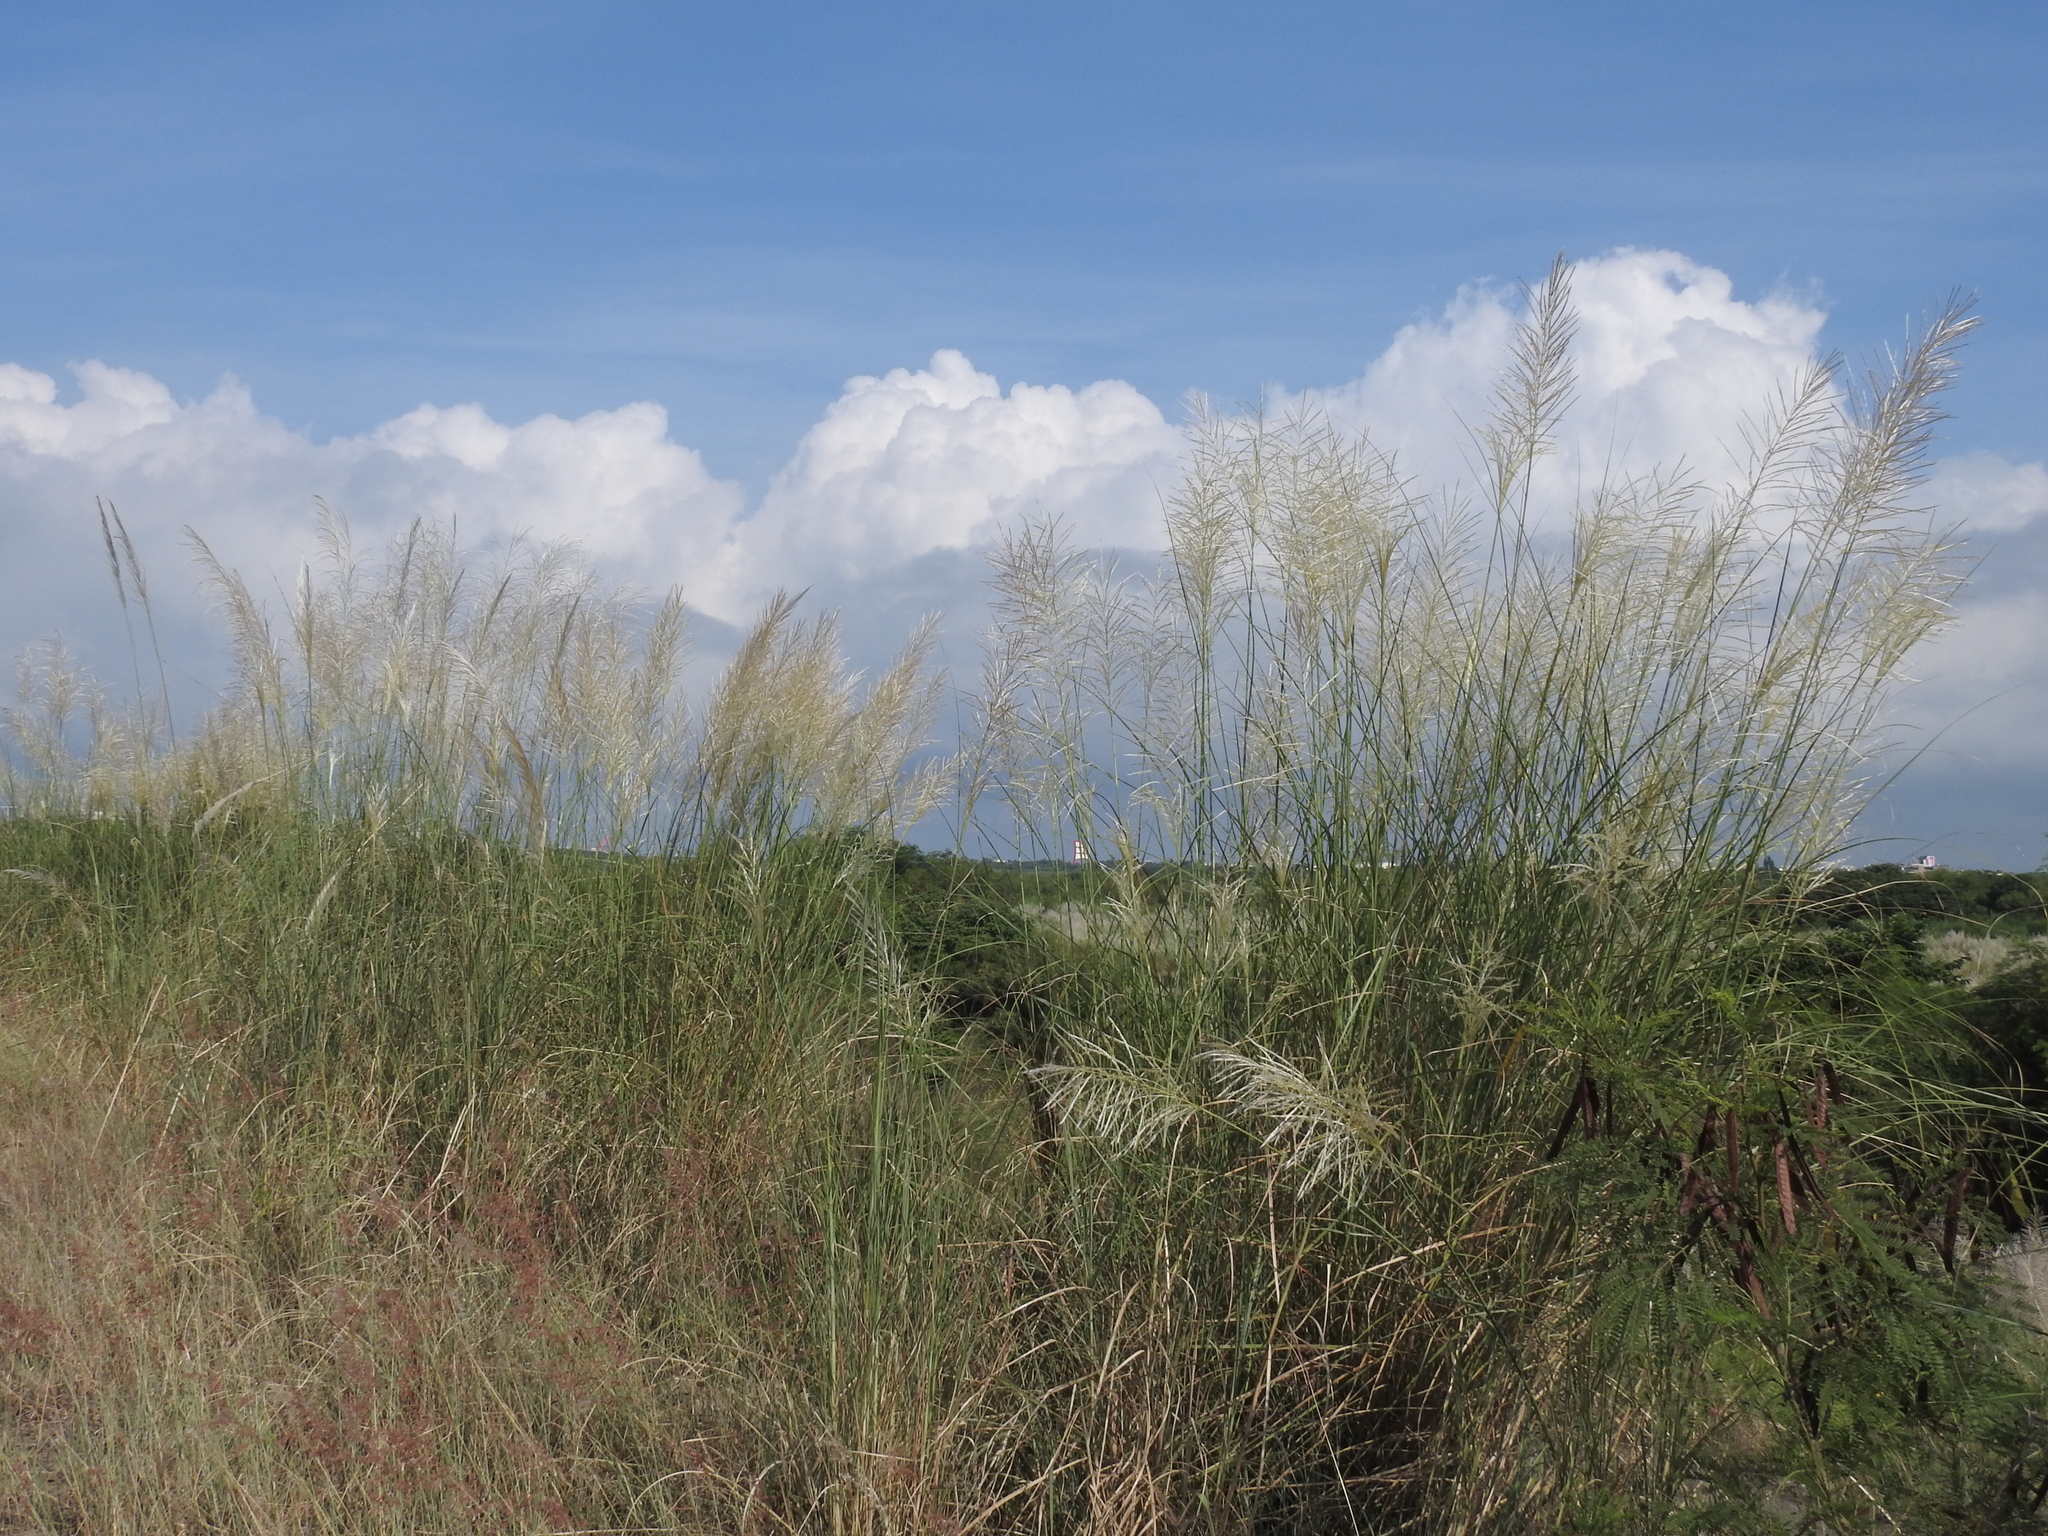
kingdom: Plantae
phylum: Tracheophyta
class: Liliopsida
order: Poales
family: Poaceae
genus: Saccharum
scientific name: Saccharum spontaneum
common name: Wild sugarcane
